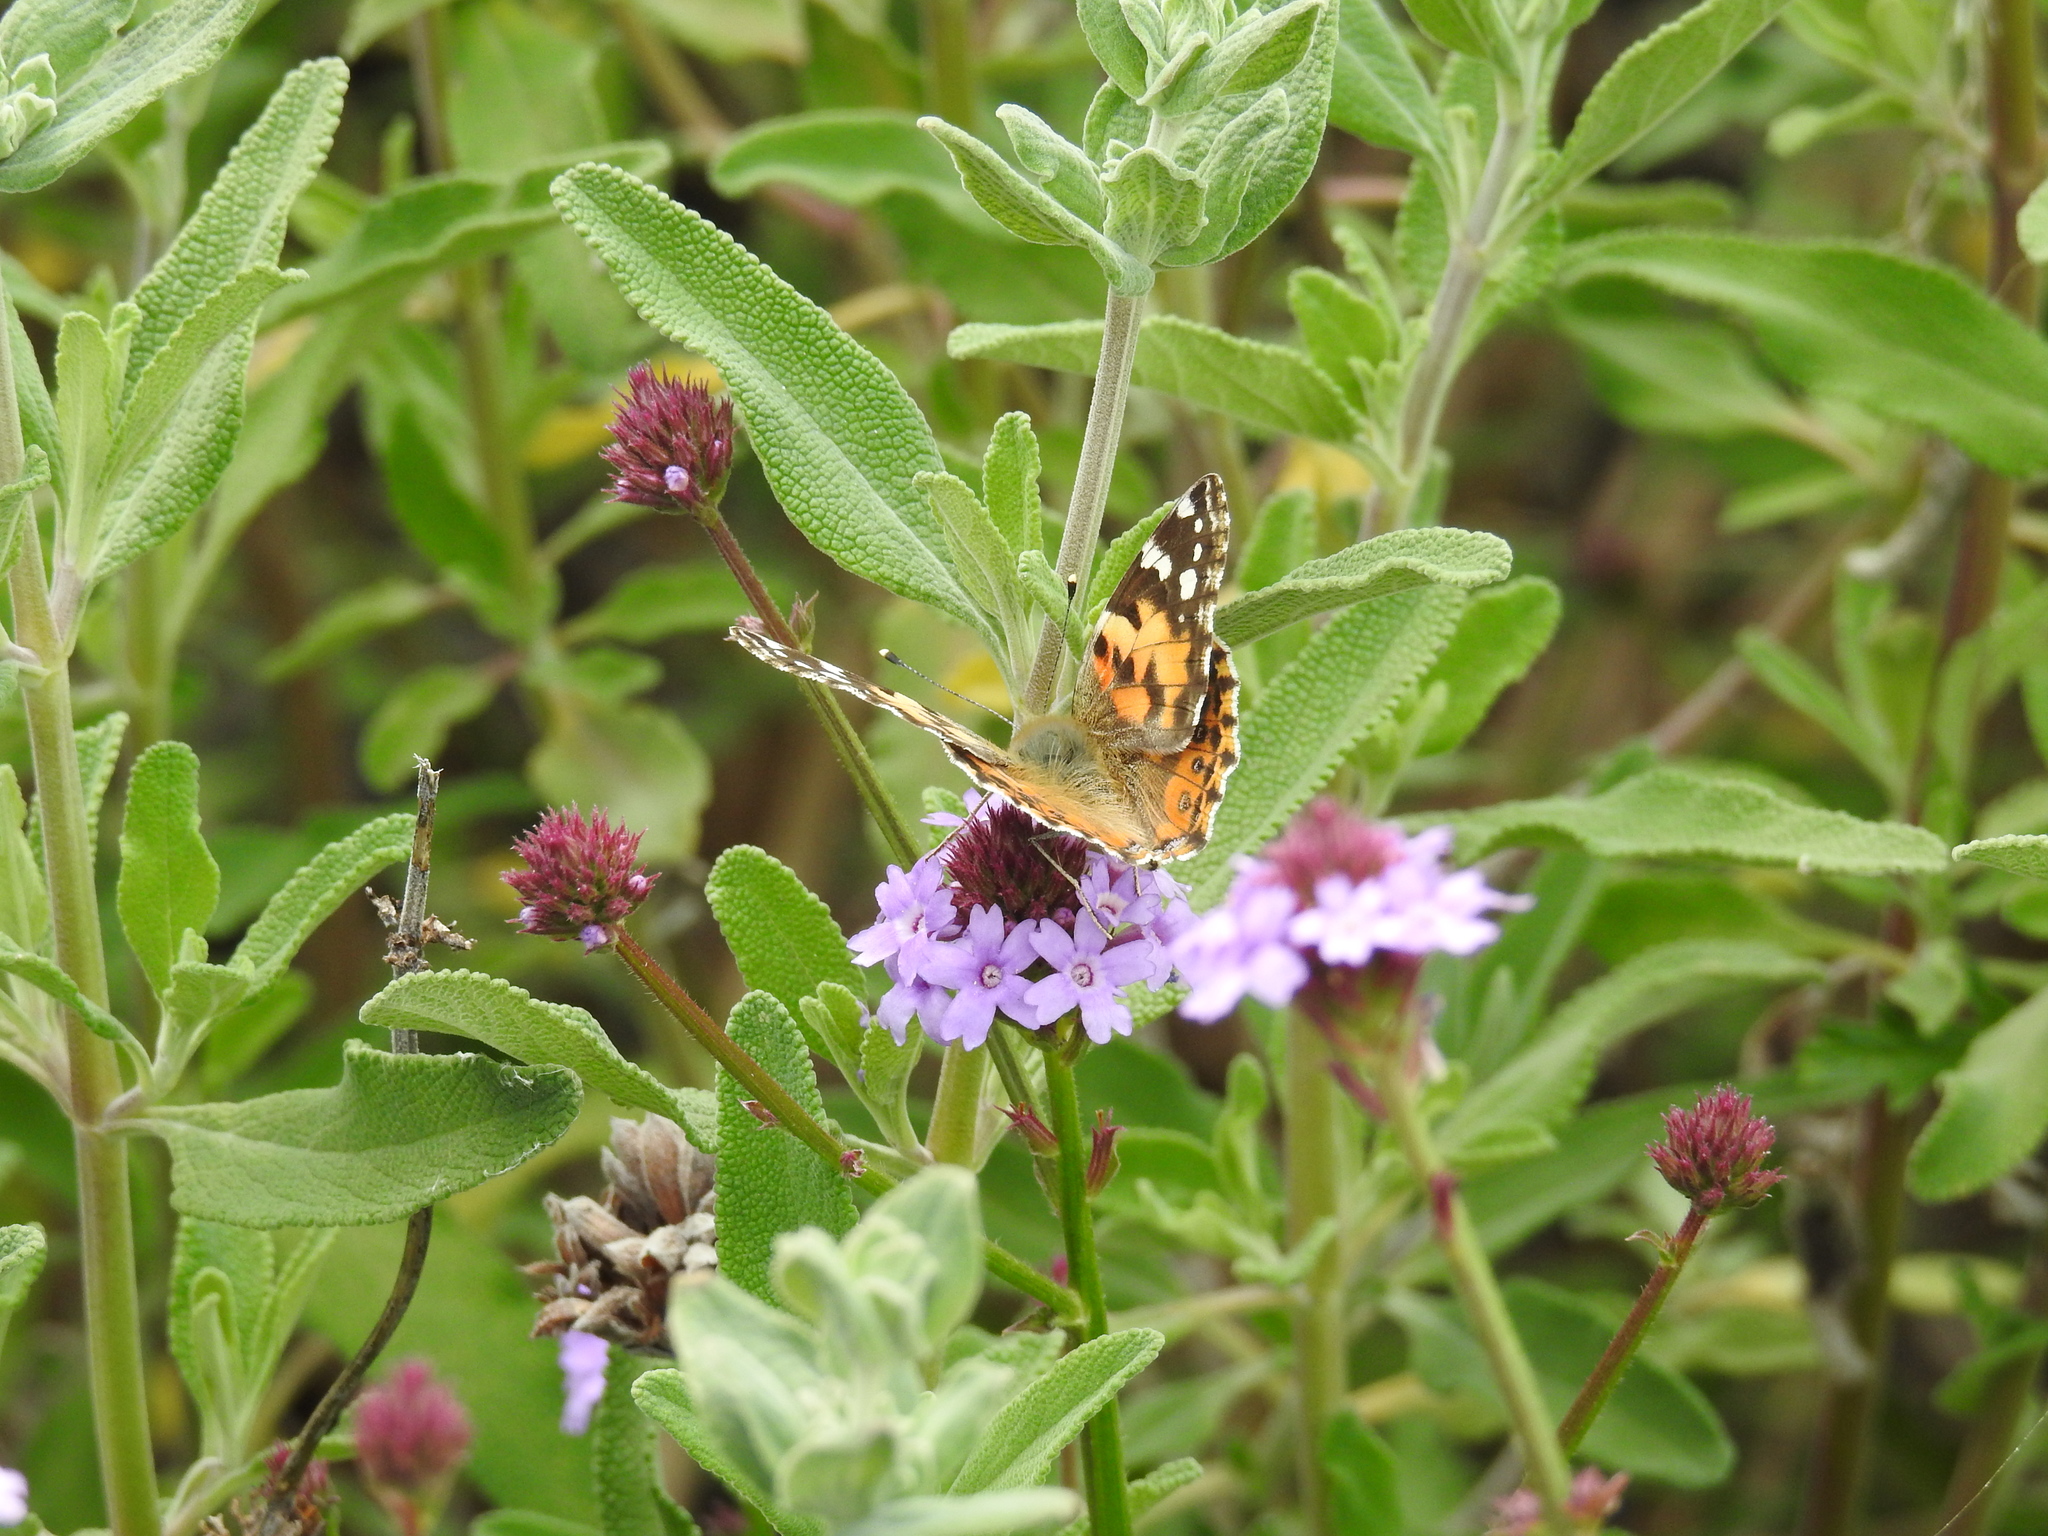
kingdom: Animalia
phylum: Arthropoda
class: Insecta
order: Lepidoptera
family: Nymphalidae
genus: Vanessa
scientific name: Vanessa cardui
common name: Painted lady
